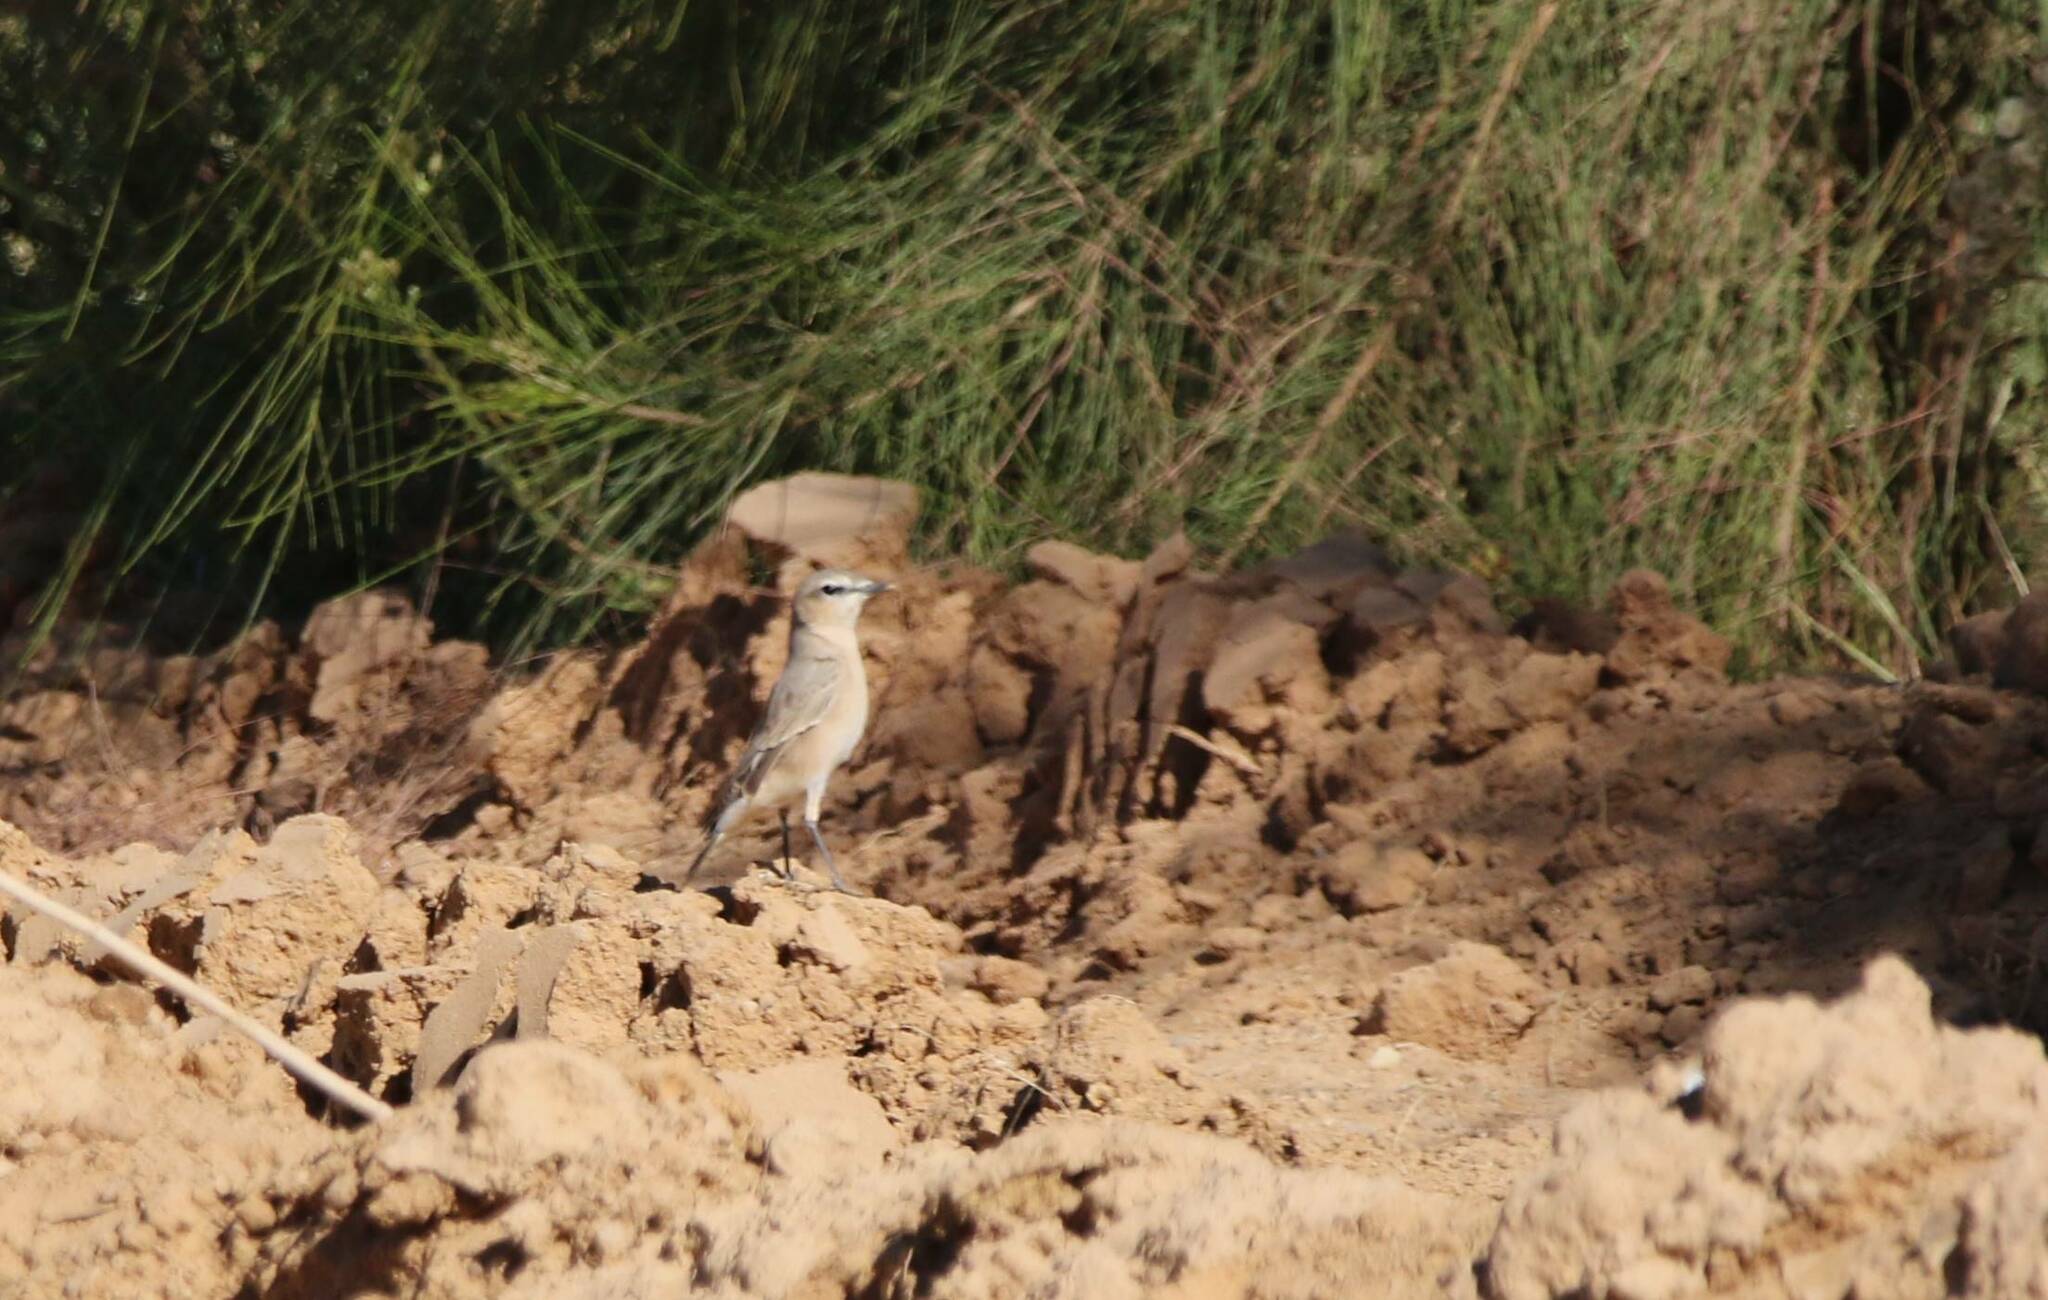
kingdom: Animalia
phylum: Chordata
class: Aves
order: Passeriformes
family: Muscicapidae
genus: Oenanthe
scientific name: Oenanthe isabellina
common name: Isabelline wheatear
